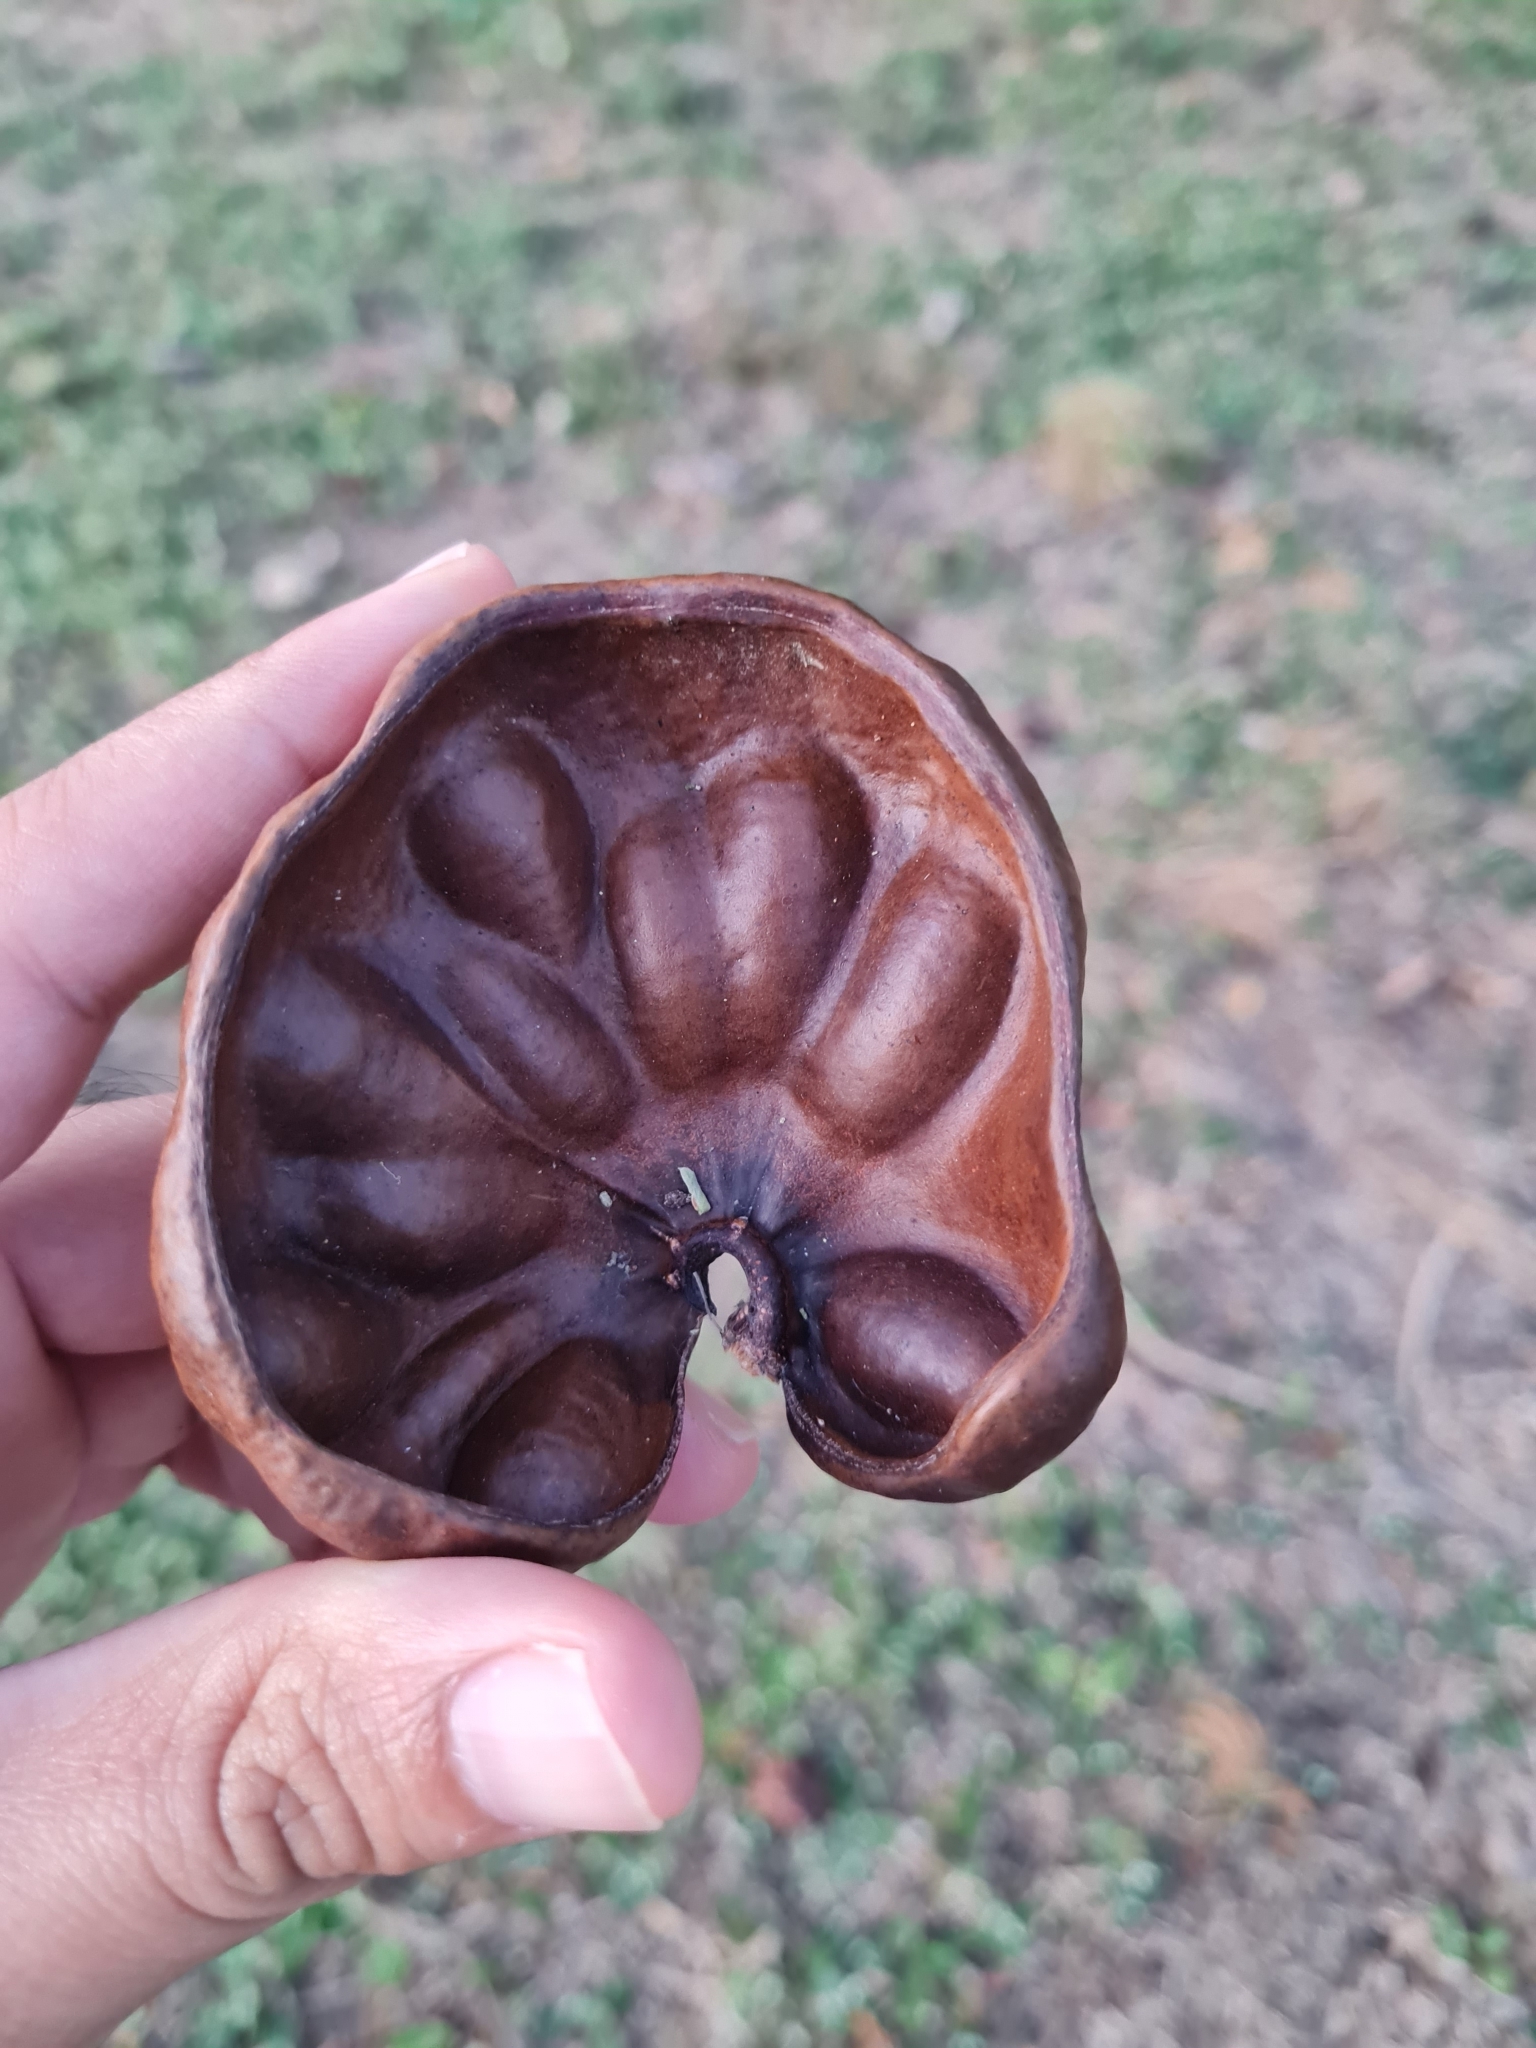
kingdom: Plantae
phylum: Tracheophyta
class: Magnoliopsida
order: Fabales
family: Fabaceae
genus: Enterolobium
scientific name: Enterolobium cyclocarpum
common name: Ear tree
